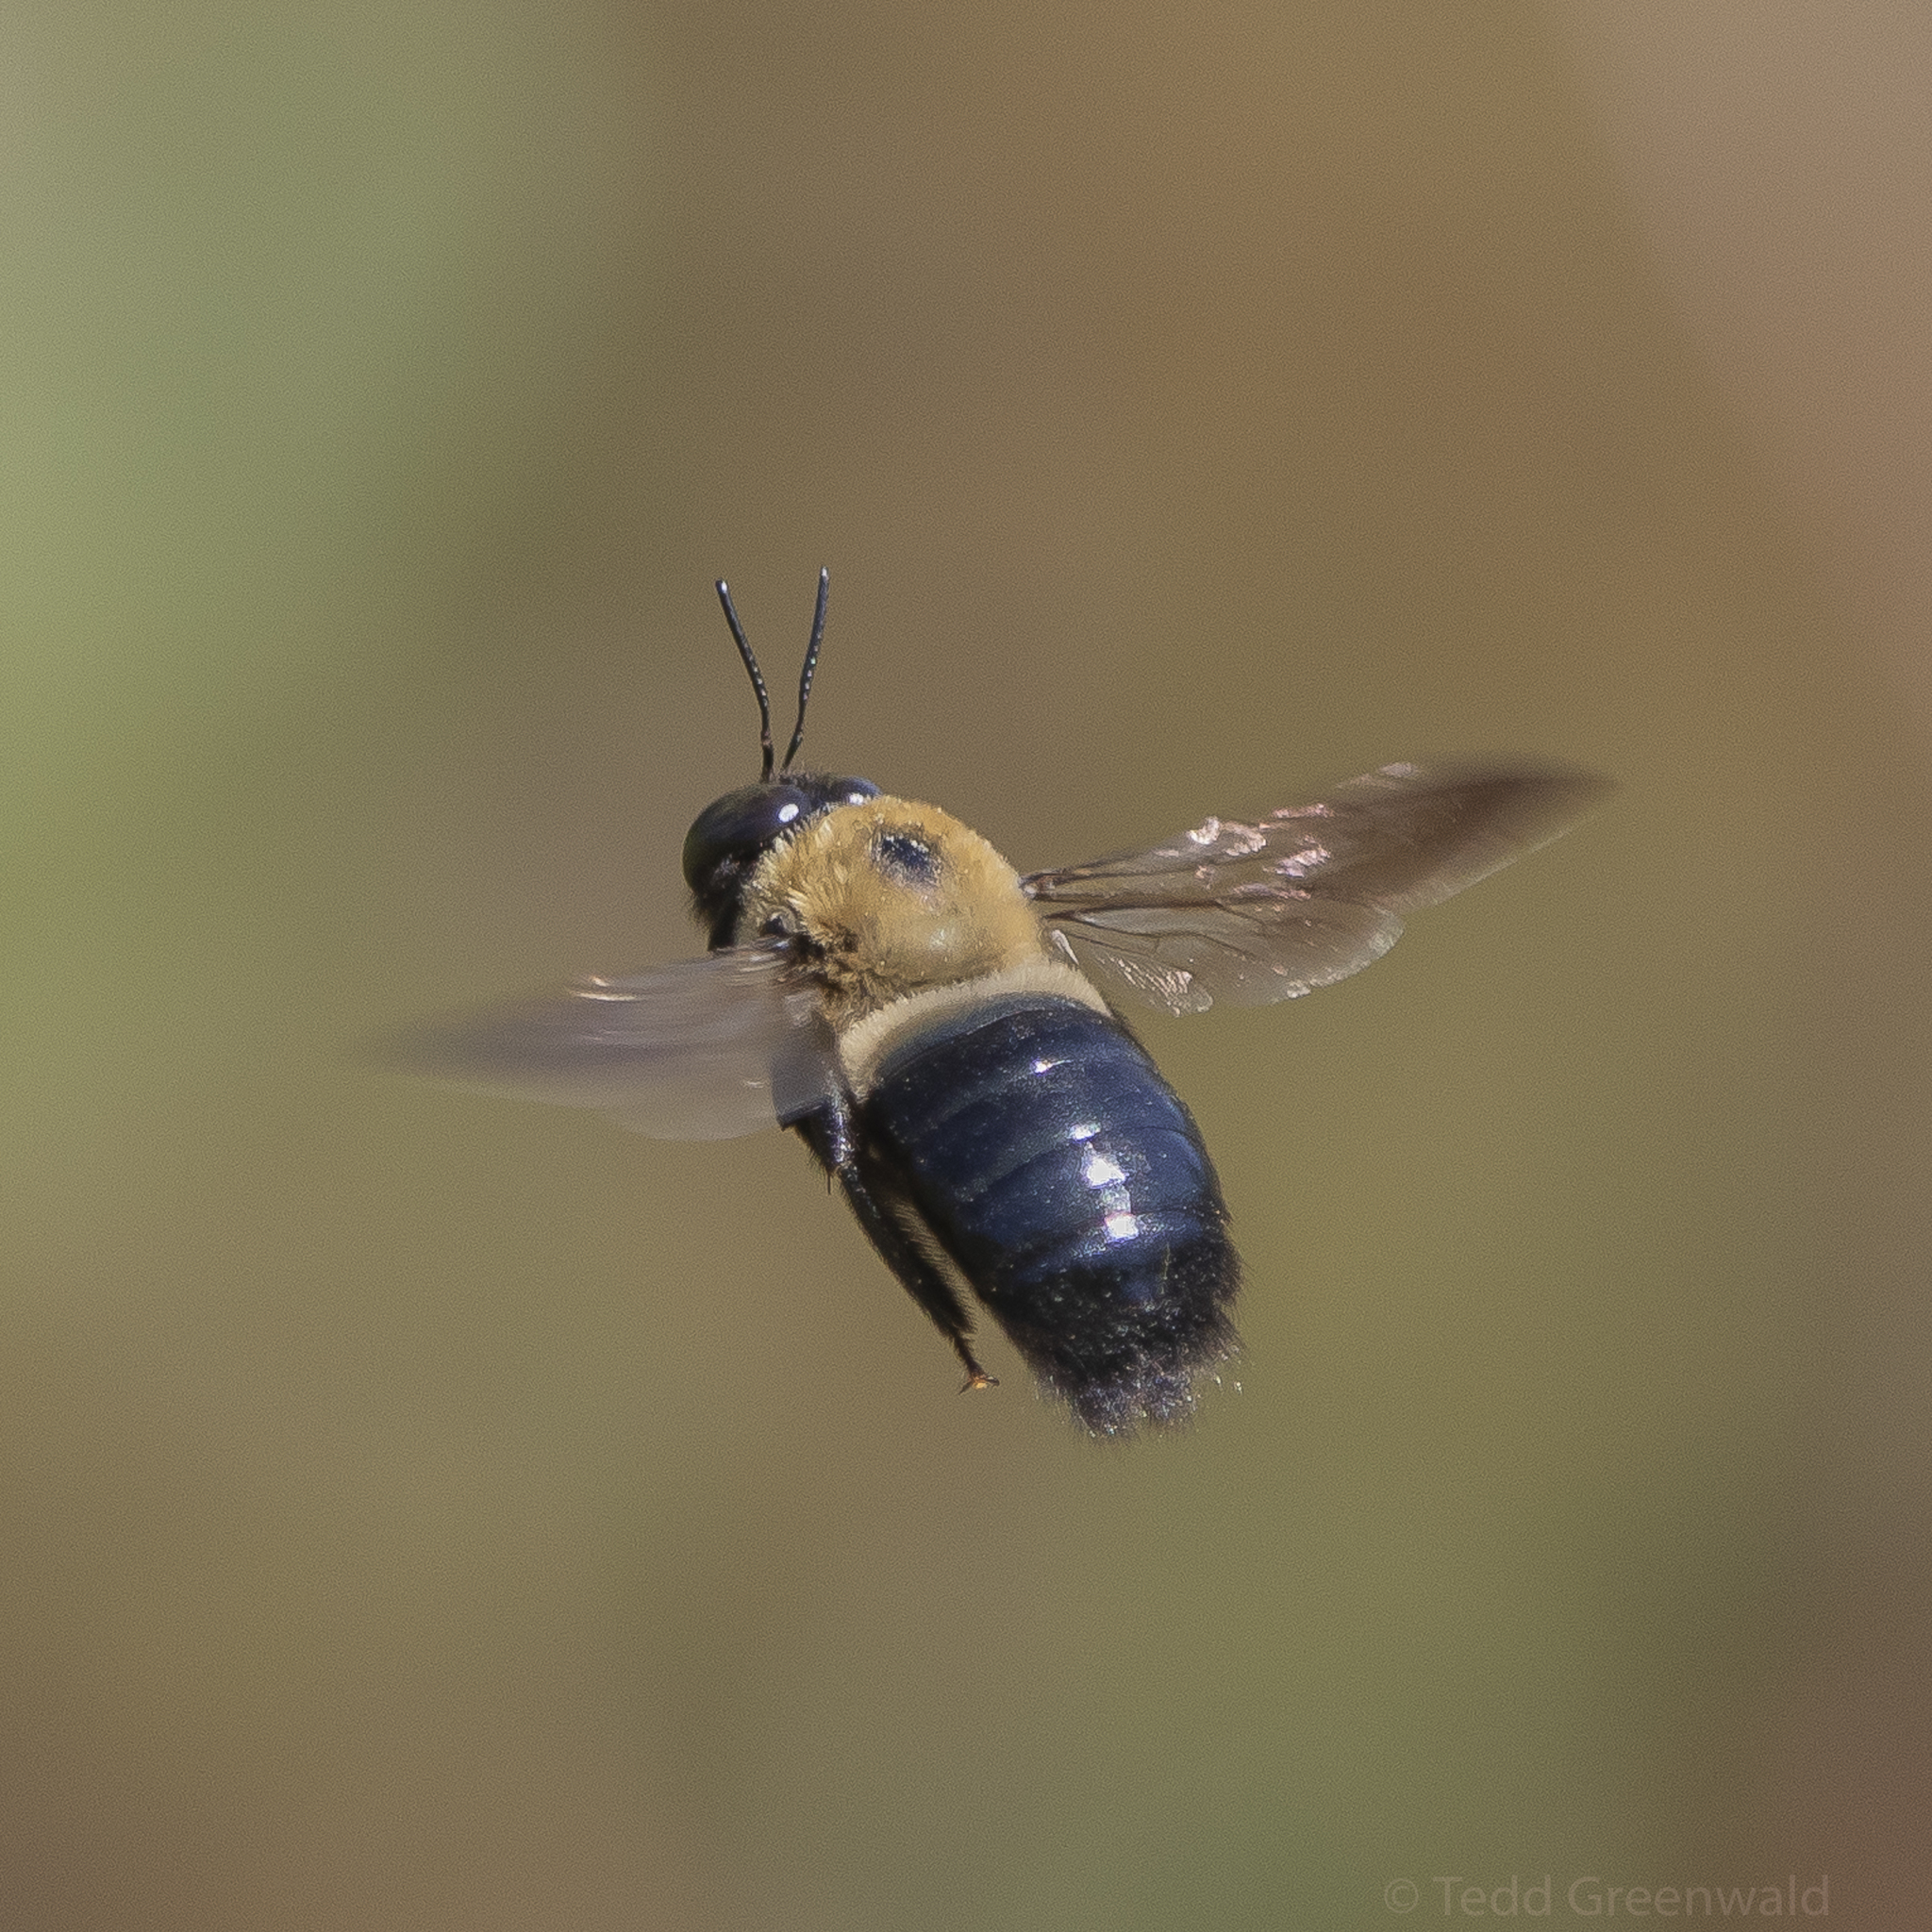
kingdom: Animalia
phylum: Arthropoda
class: Insecta
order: Hymenoptera
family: Apidae
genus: Xylocopa
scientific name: Xylocopa virginica
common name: Carpenter bee
